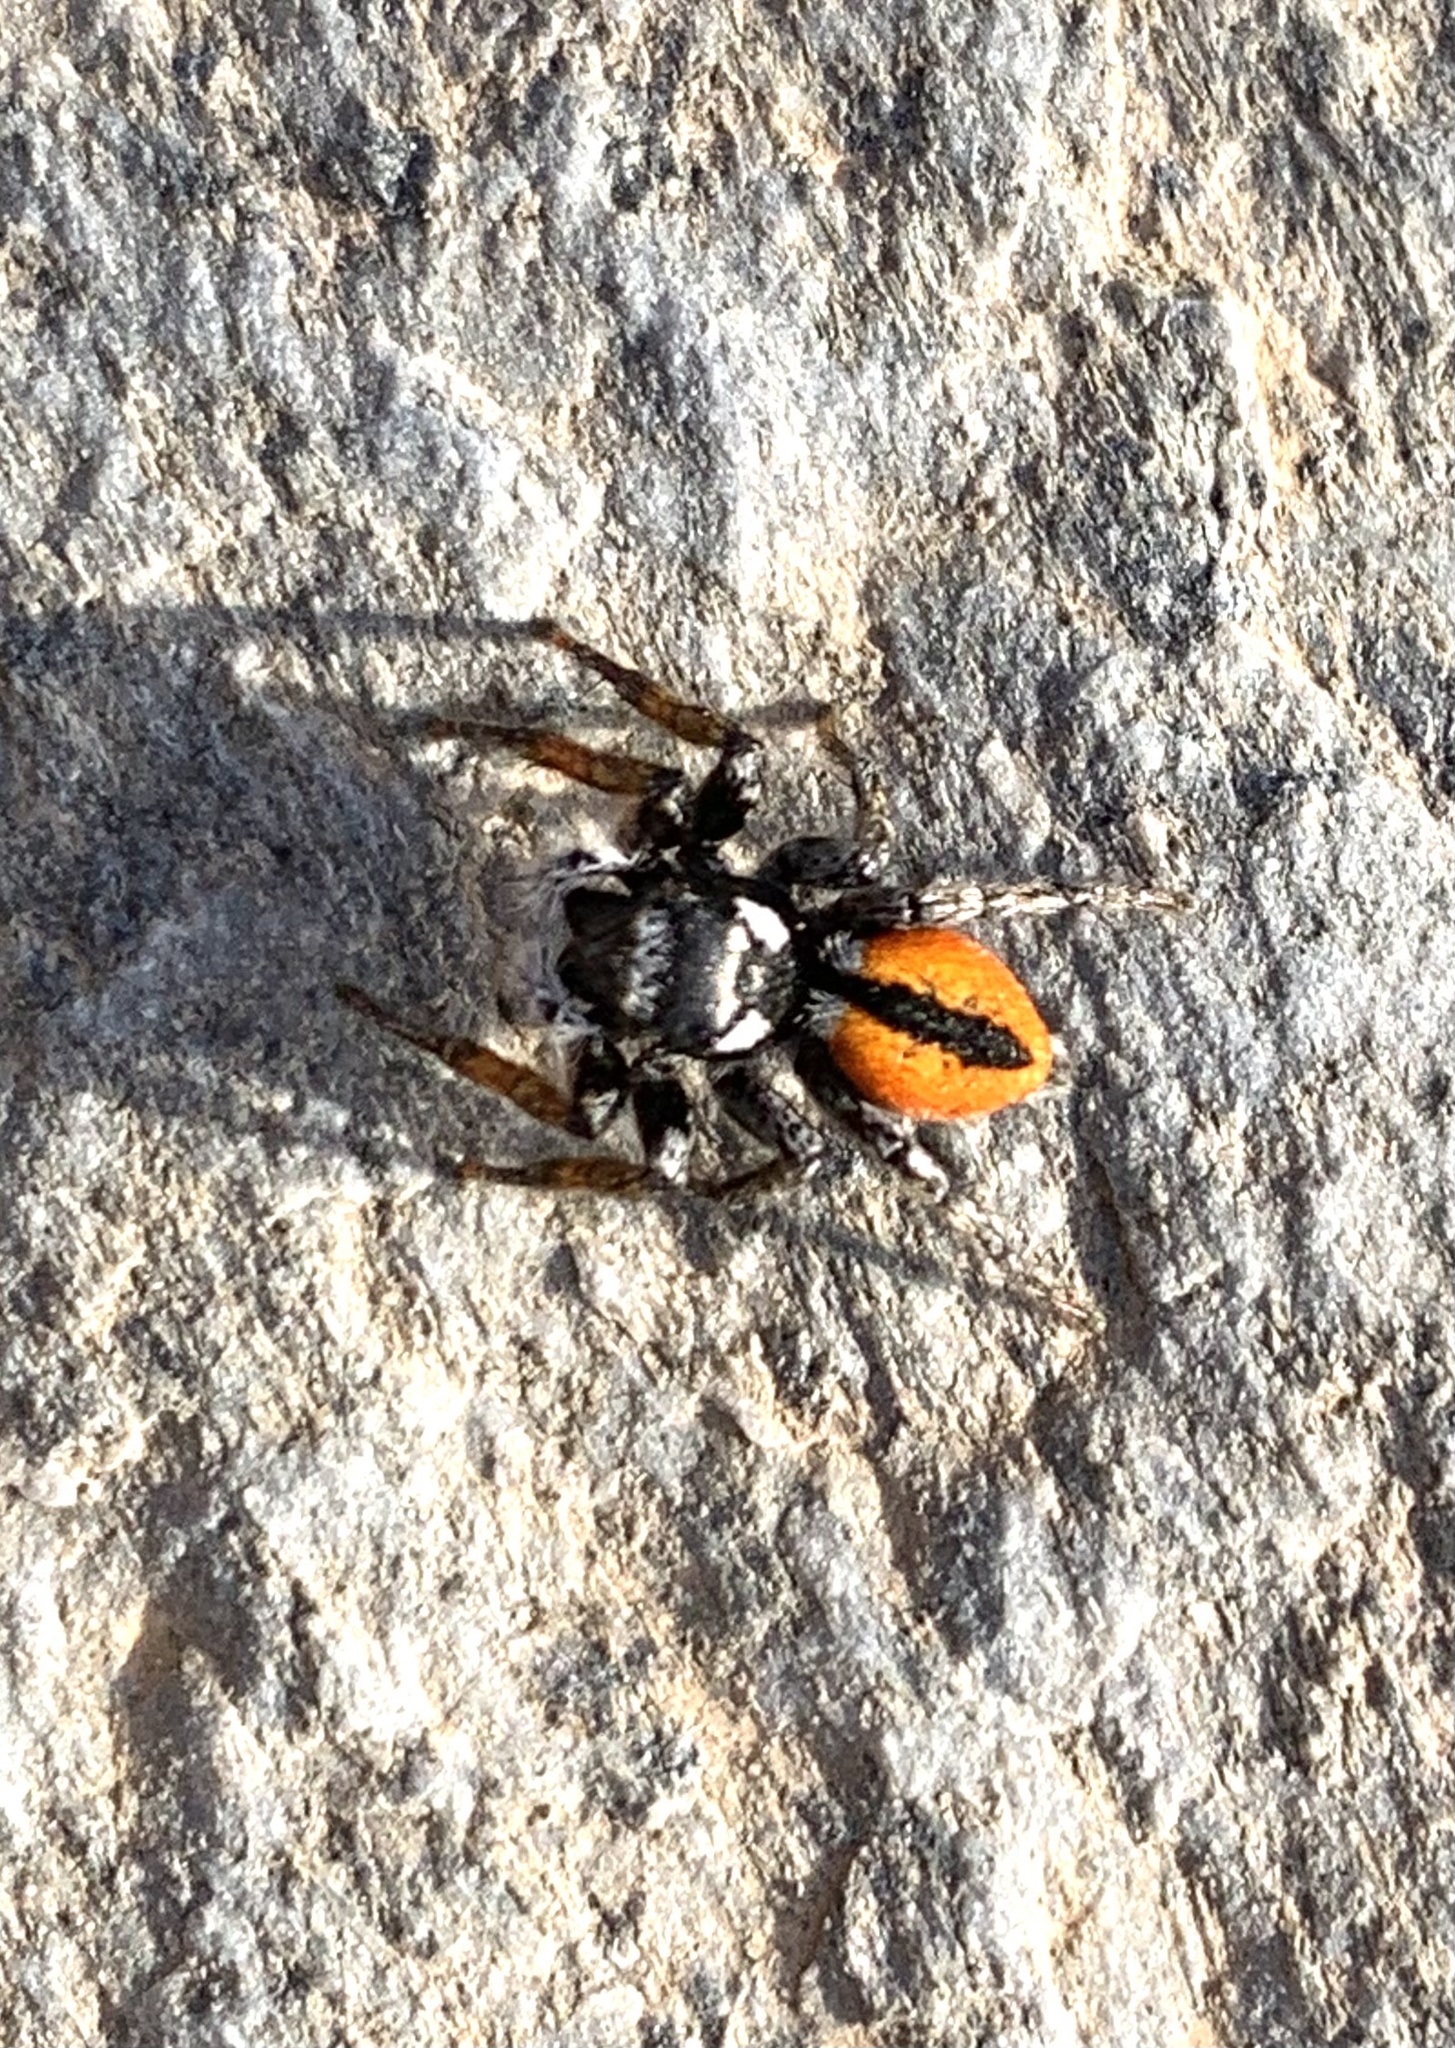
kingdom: Animalia
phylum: Arthropoda
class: Arachnida
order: Araneae
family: Salticidae
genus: Philaeus
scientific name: Philaeus chrysops
